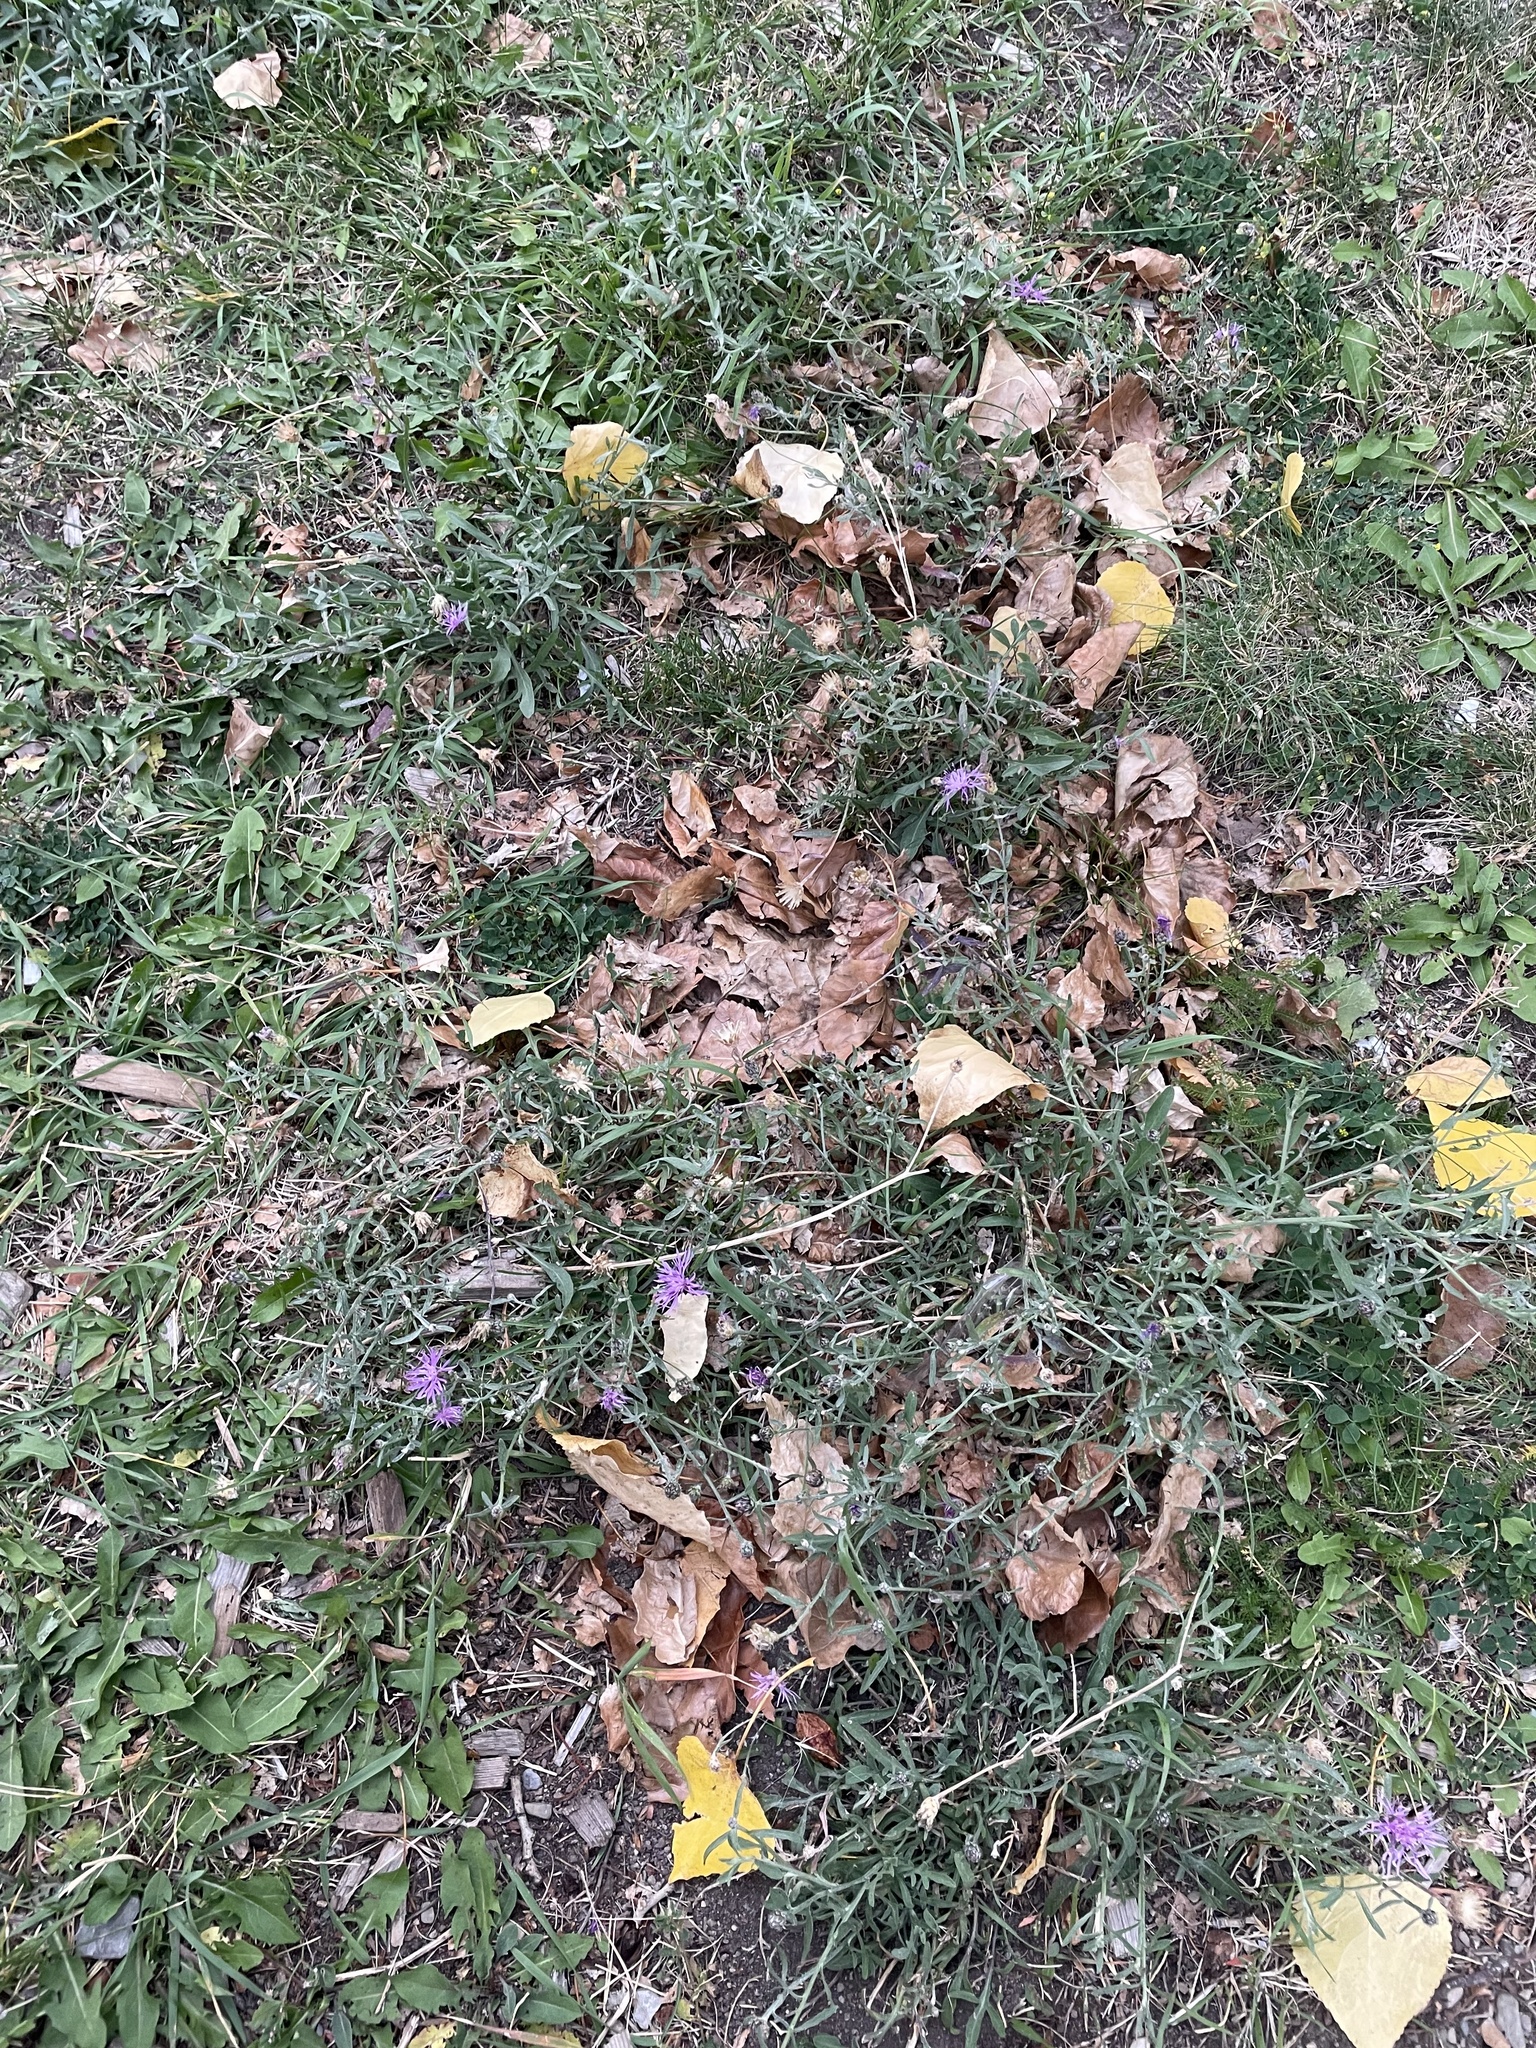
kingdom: Plantae
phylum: Tracheophyta
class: Magnoliopsida
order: Asterales
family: Asteraceae
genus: Centaurea
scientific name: Centaurea stoebe
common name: Spotted knapweed
